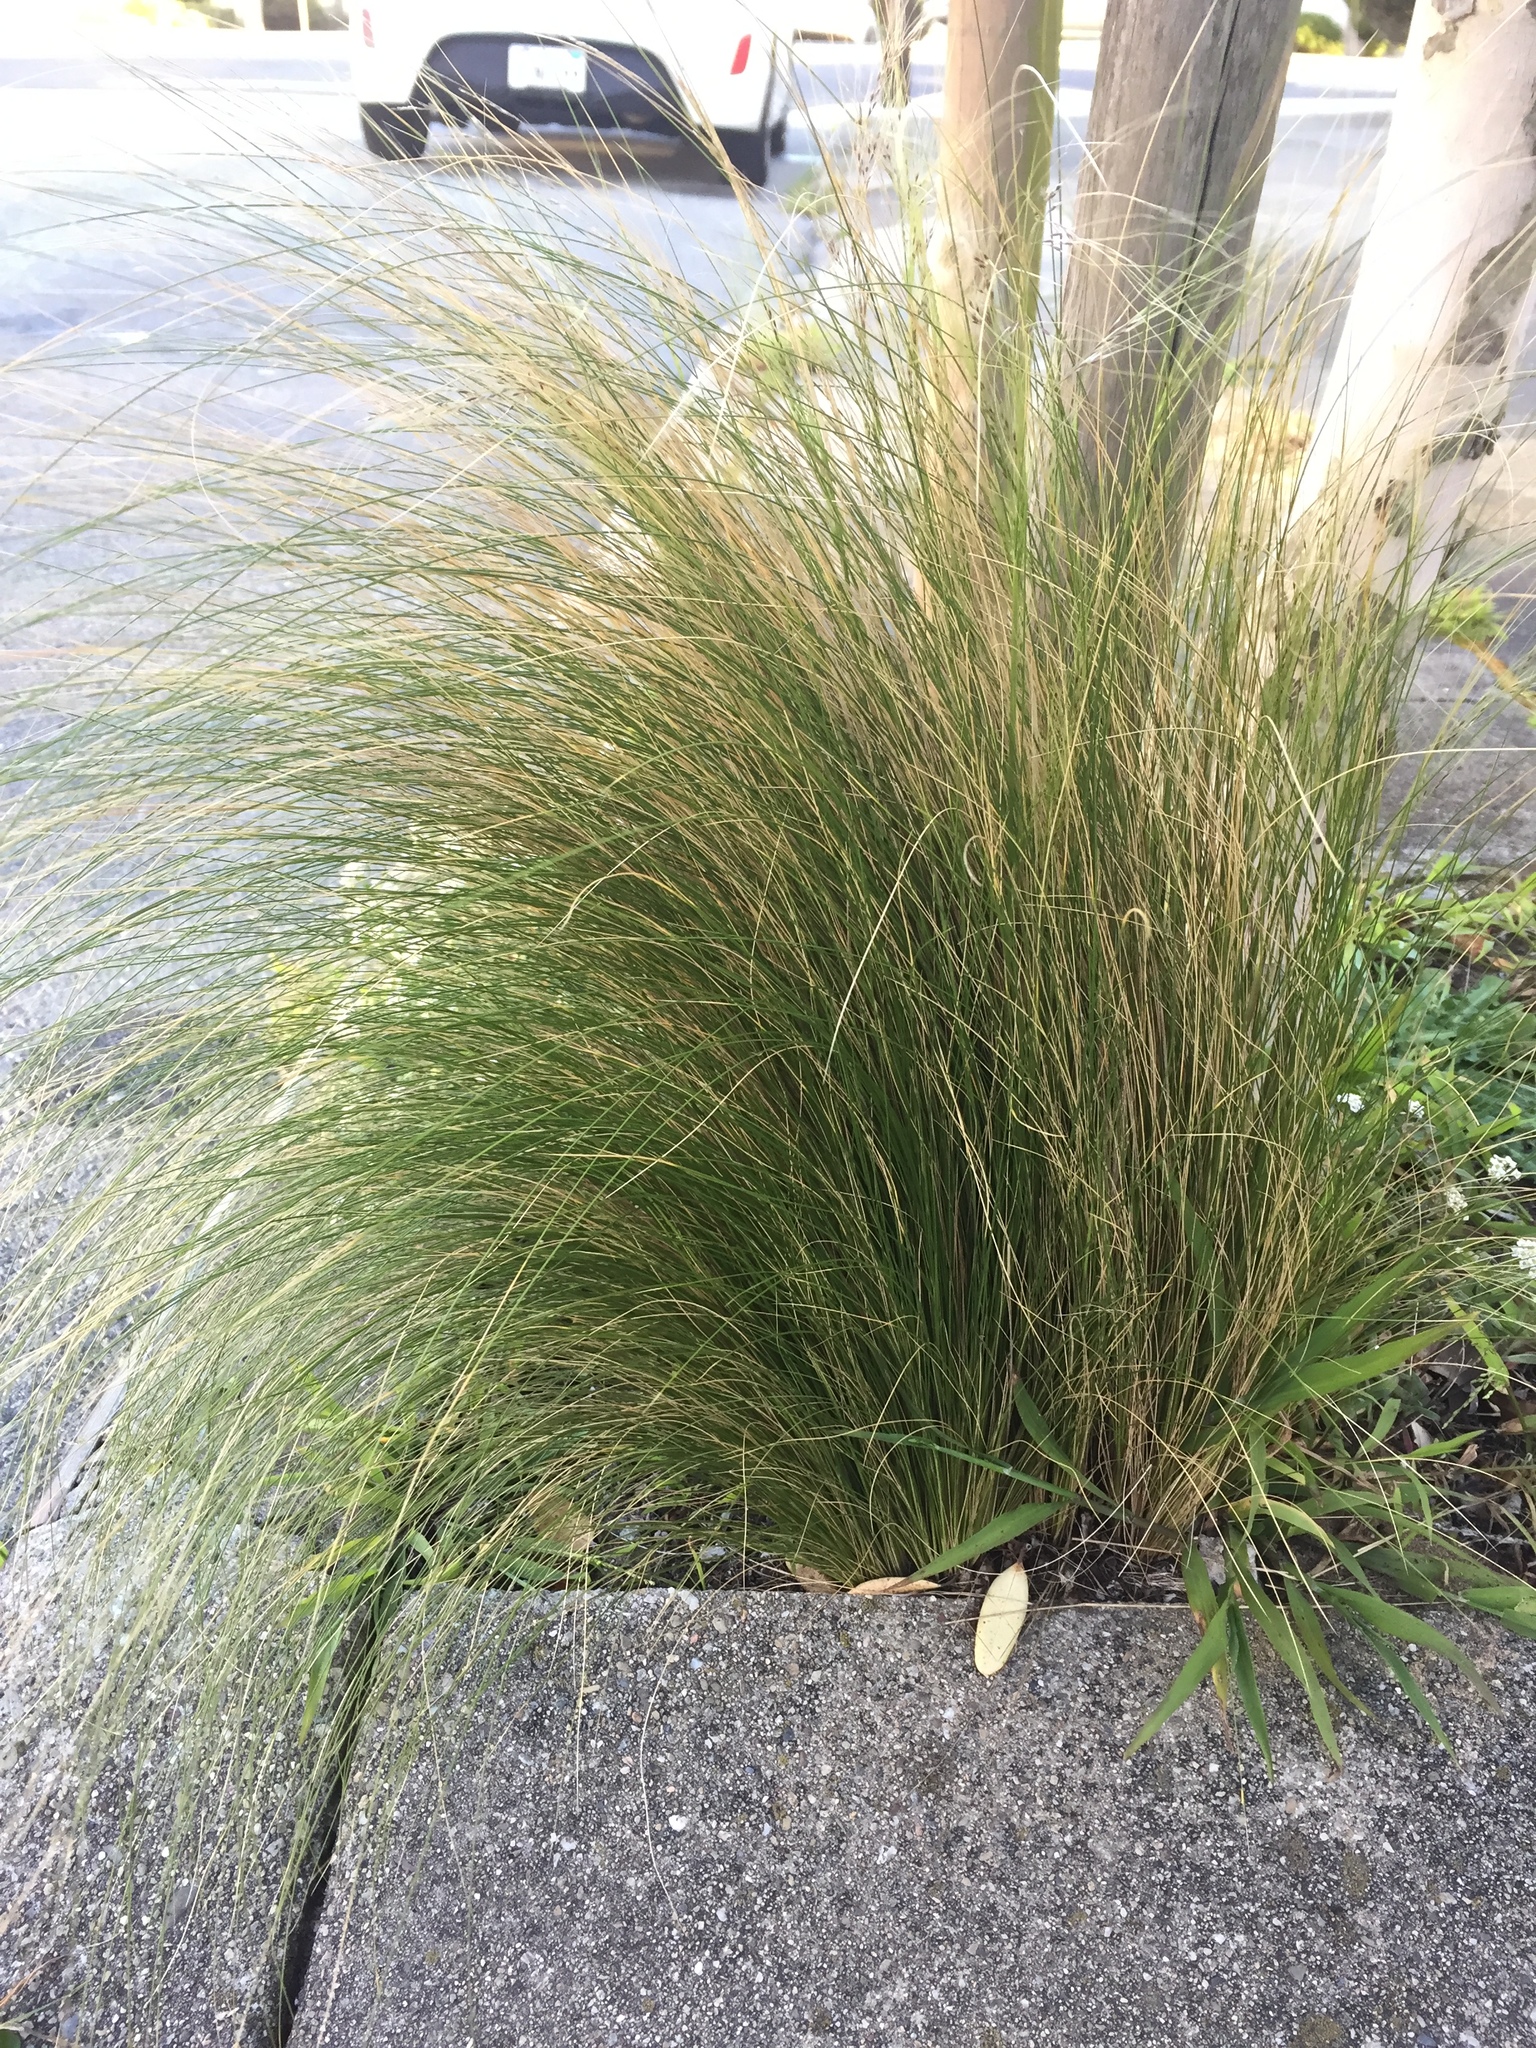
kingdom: Plantae
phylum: Tracheophyta
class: Liliopsida
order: Poales
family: Poaceae
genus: Nassella
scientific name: Nassella tenuissima
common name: Argentine needlegrass
